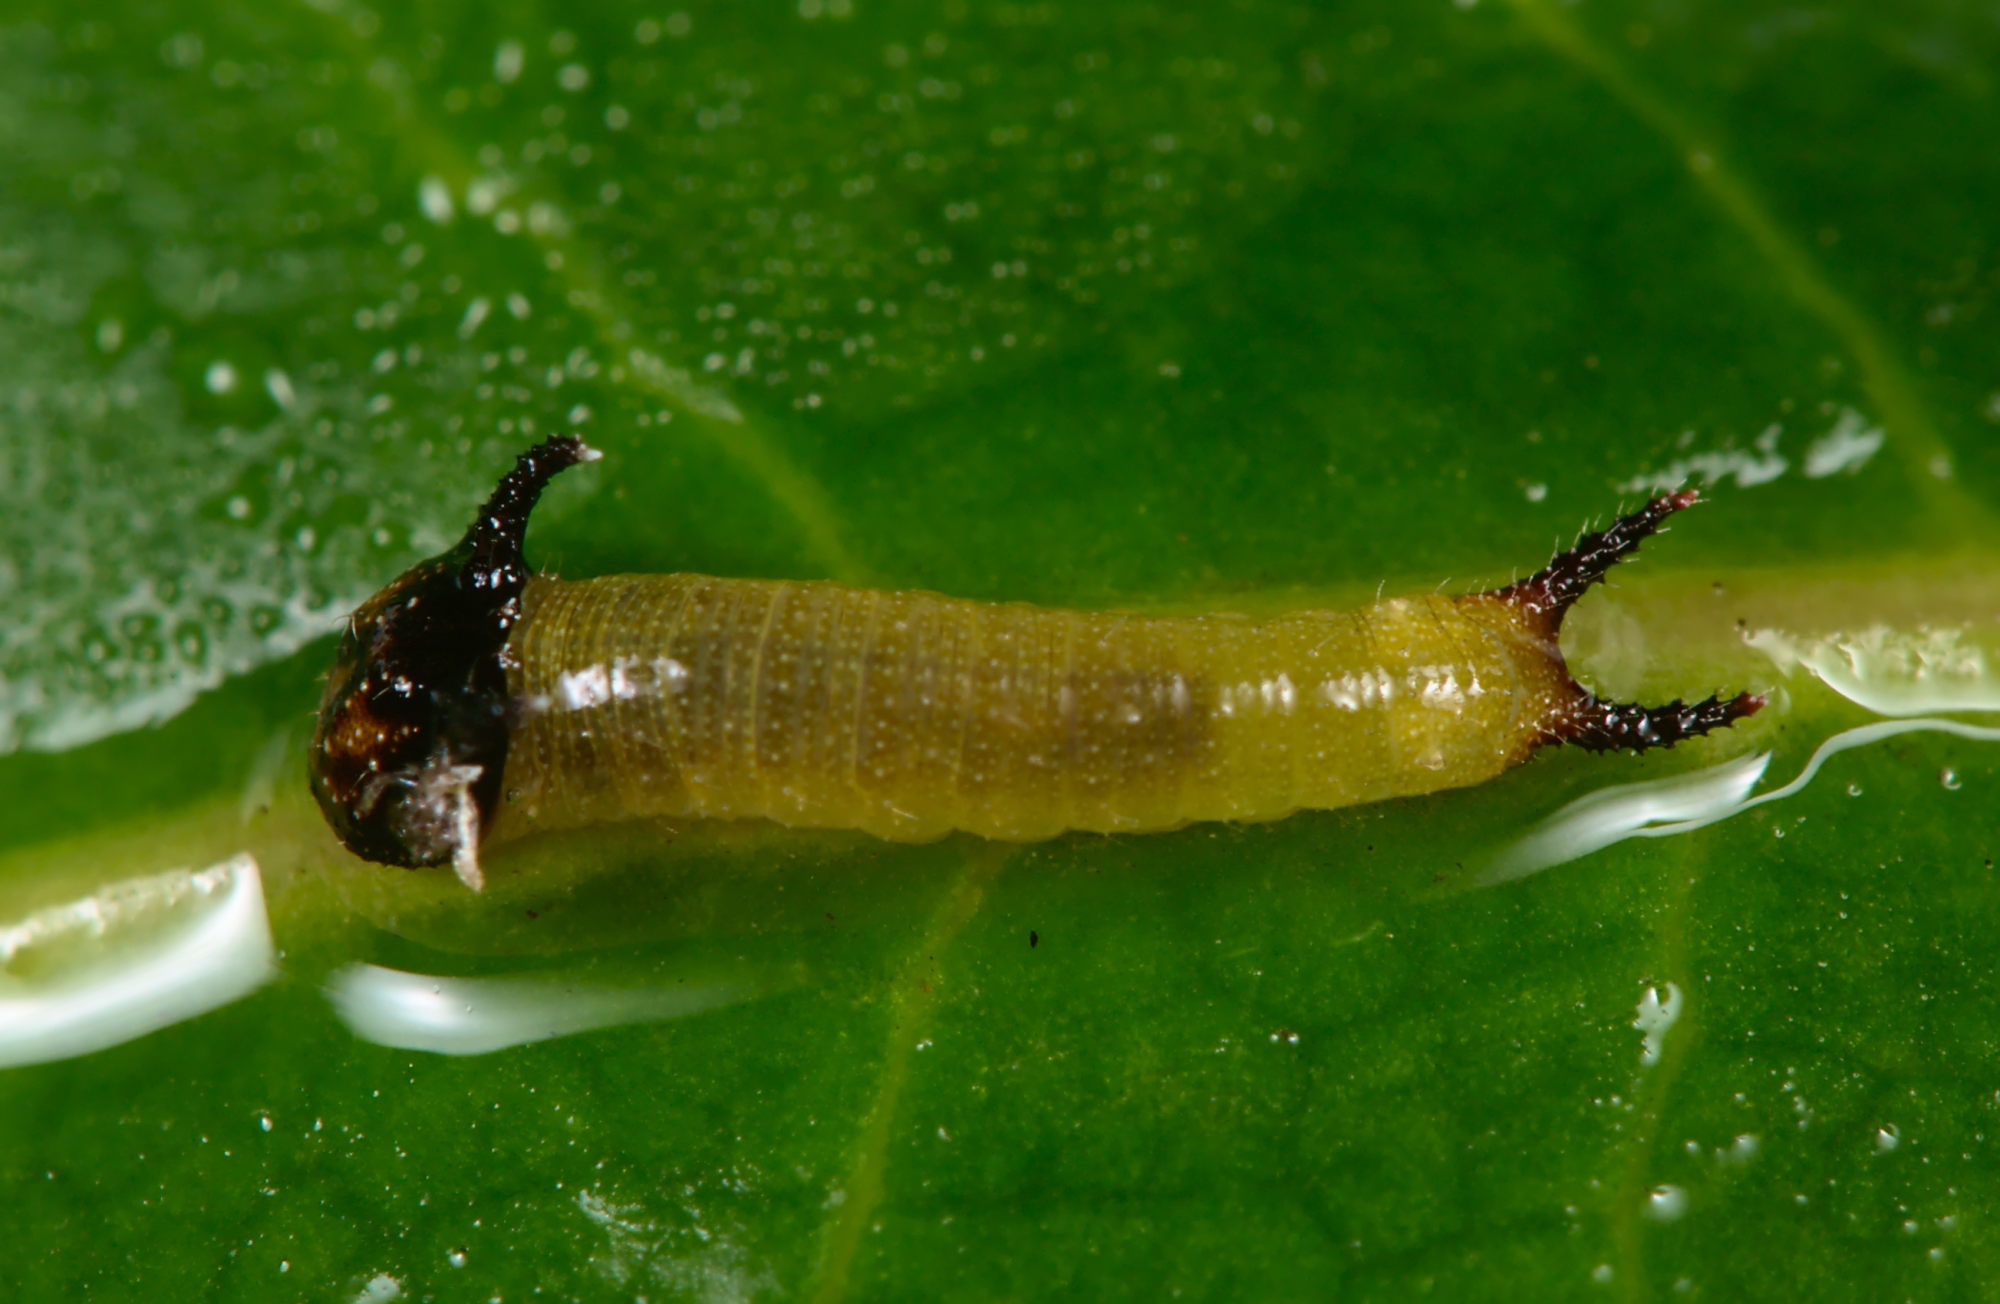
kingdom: Animalia
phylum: Arthropoda
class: Insecta
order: Lepidoptera
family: Nymphalidae
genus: Charaxes
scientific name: Charaxes jasius
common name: Two tailed pasha
